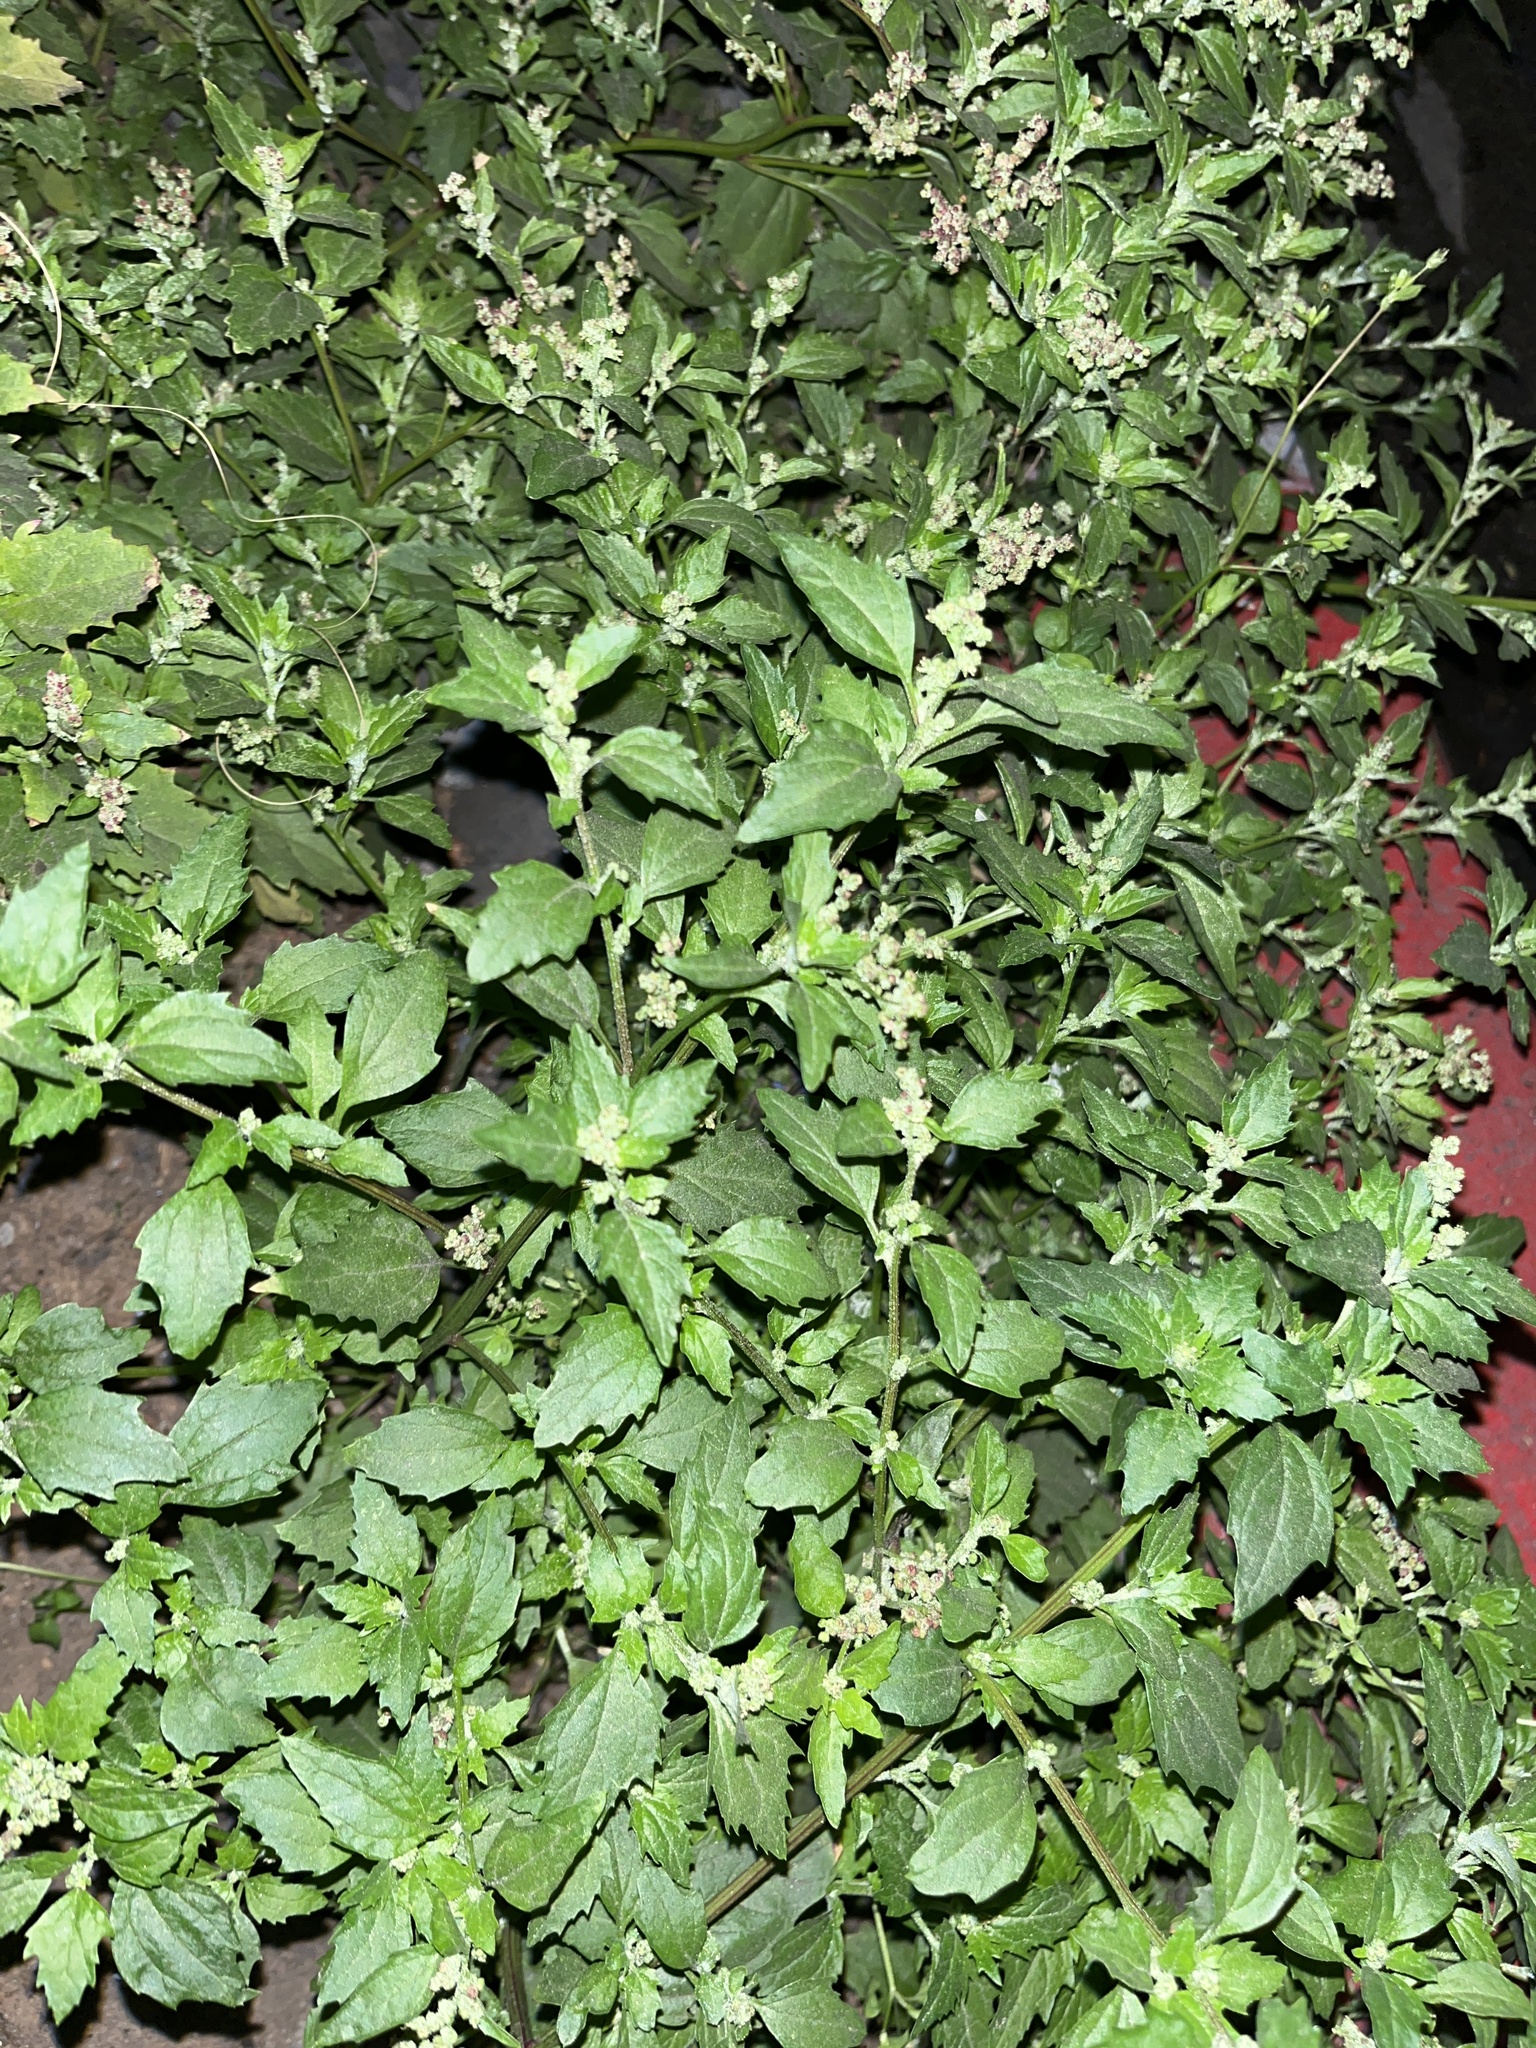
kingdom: Plantae
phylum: Tracheophyta
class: Magnoliopsida
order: Caryophyllales
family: Amaranthaceae
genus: Chenopodiastrum
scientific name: Chenopodiastrum murale
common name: Sowbane
